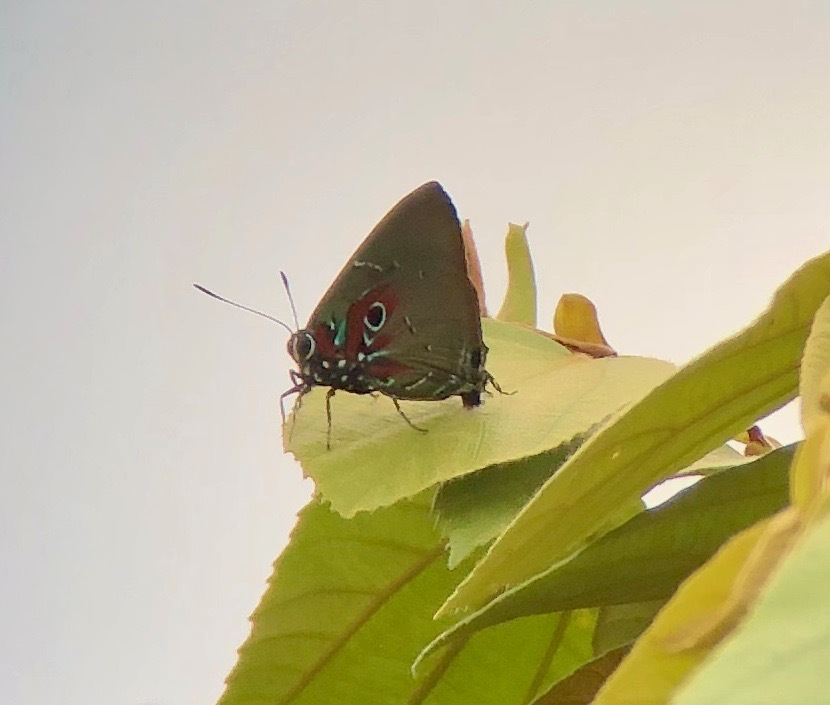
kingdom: Animalia
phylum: Arthropoda
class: Insecta
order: Lepidoptera
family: Lycaenidae
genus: Thecla
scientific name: Thecla inachus
